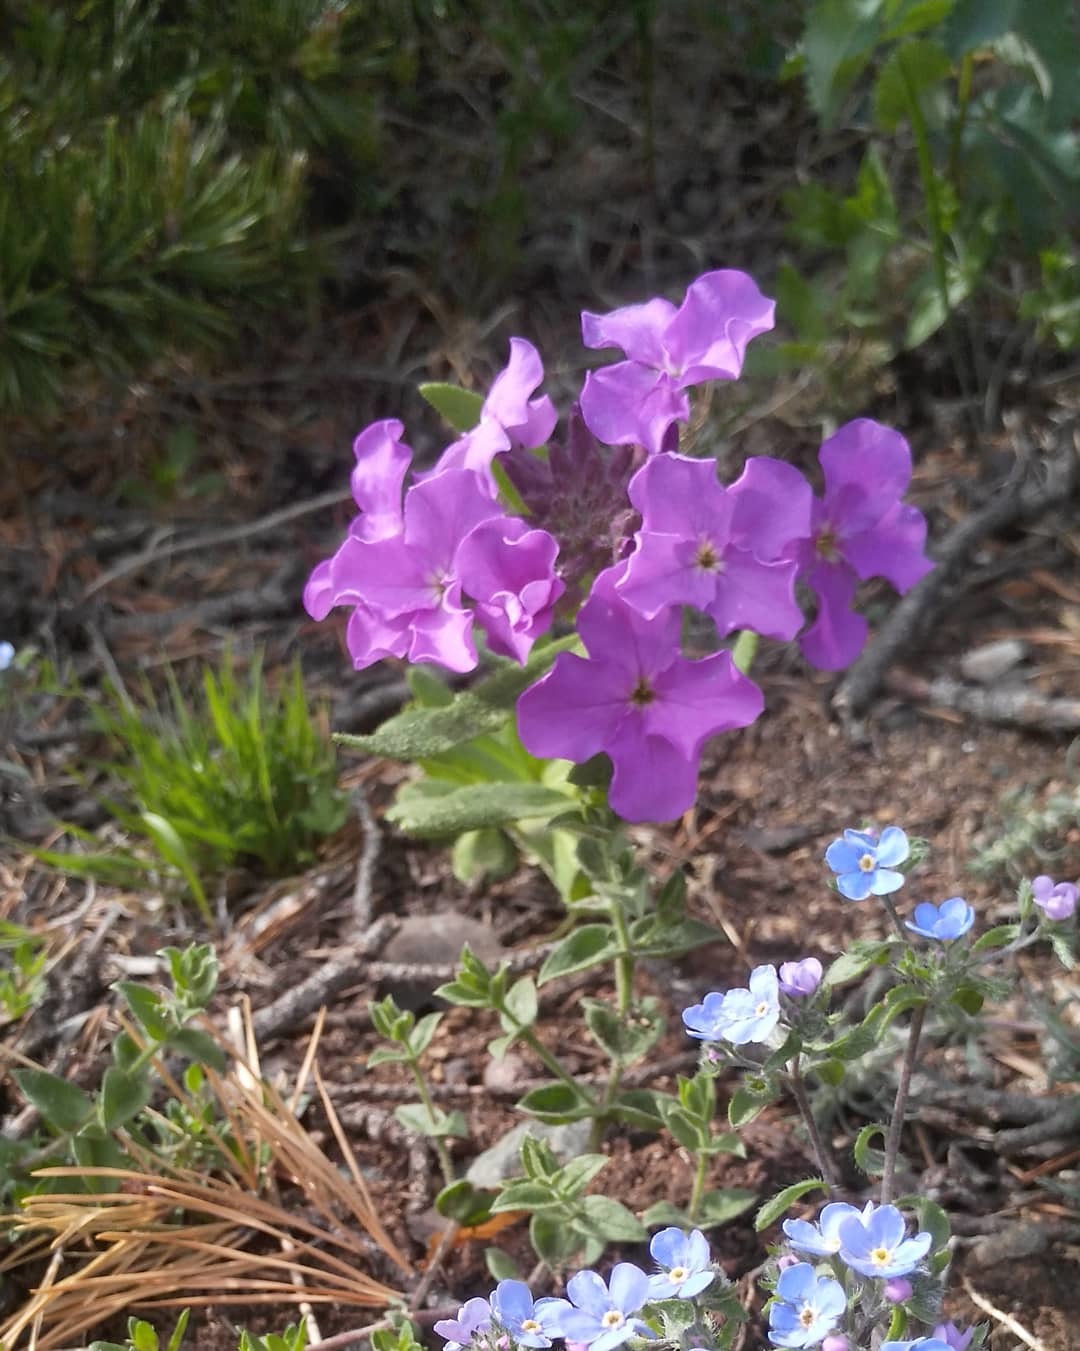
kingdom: Plantae
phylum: Tracheophyta
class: Magnoliopsida
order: Brassicales
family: Brassicaceae
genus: Clausia
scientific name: Clausia aprica
